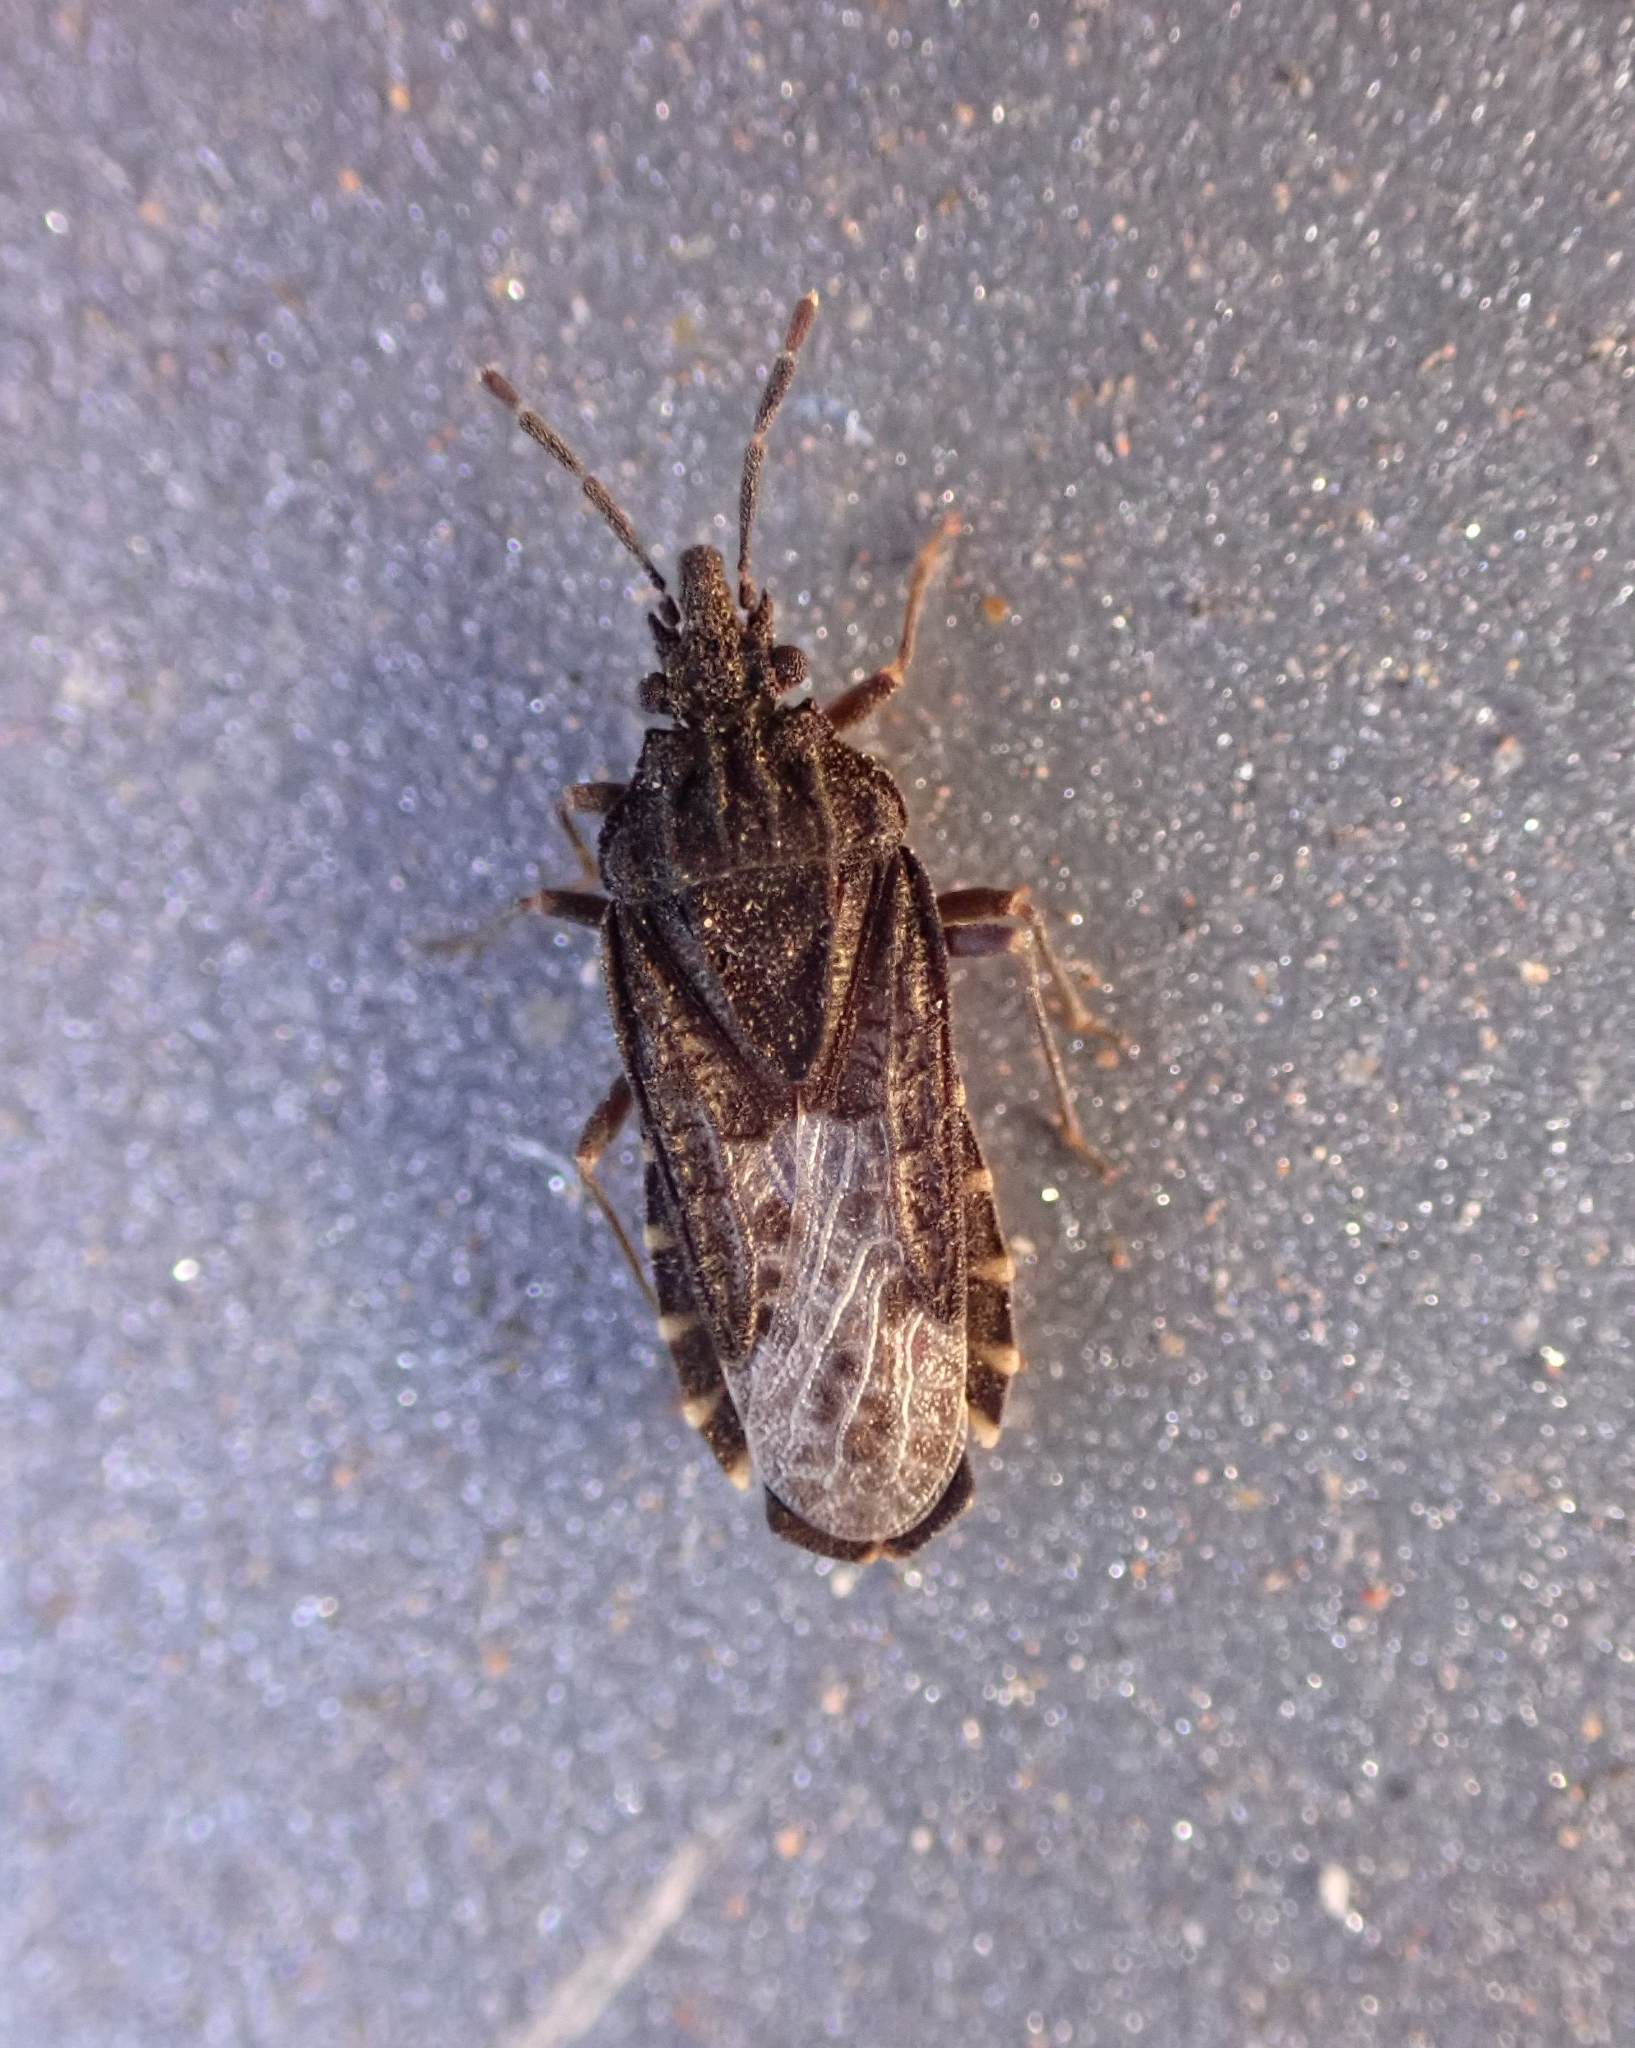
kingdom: Animalia
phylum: Arthropoda
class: Insecta
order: Hemiptera
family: Aradidae
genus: Aradus
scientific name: Aradus canariensis
